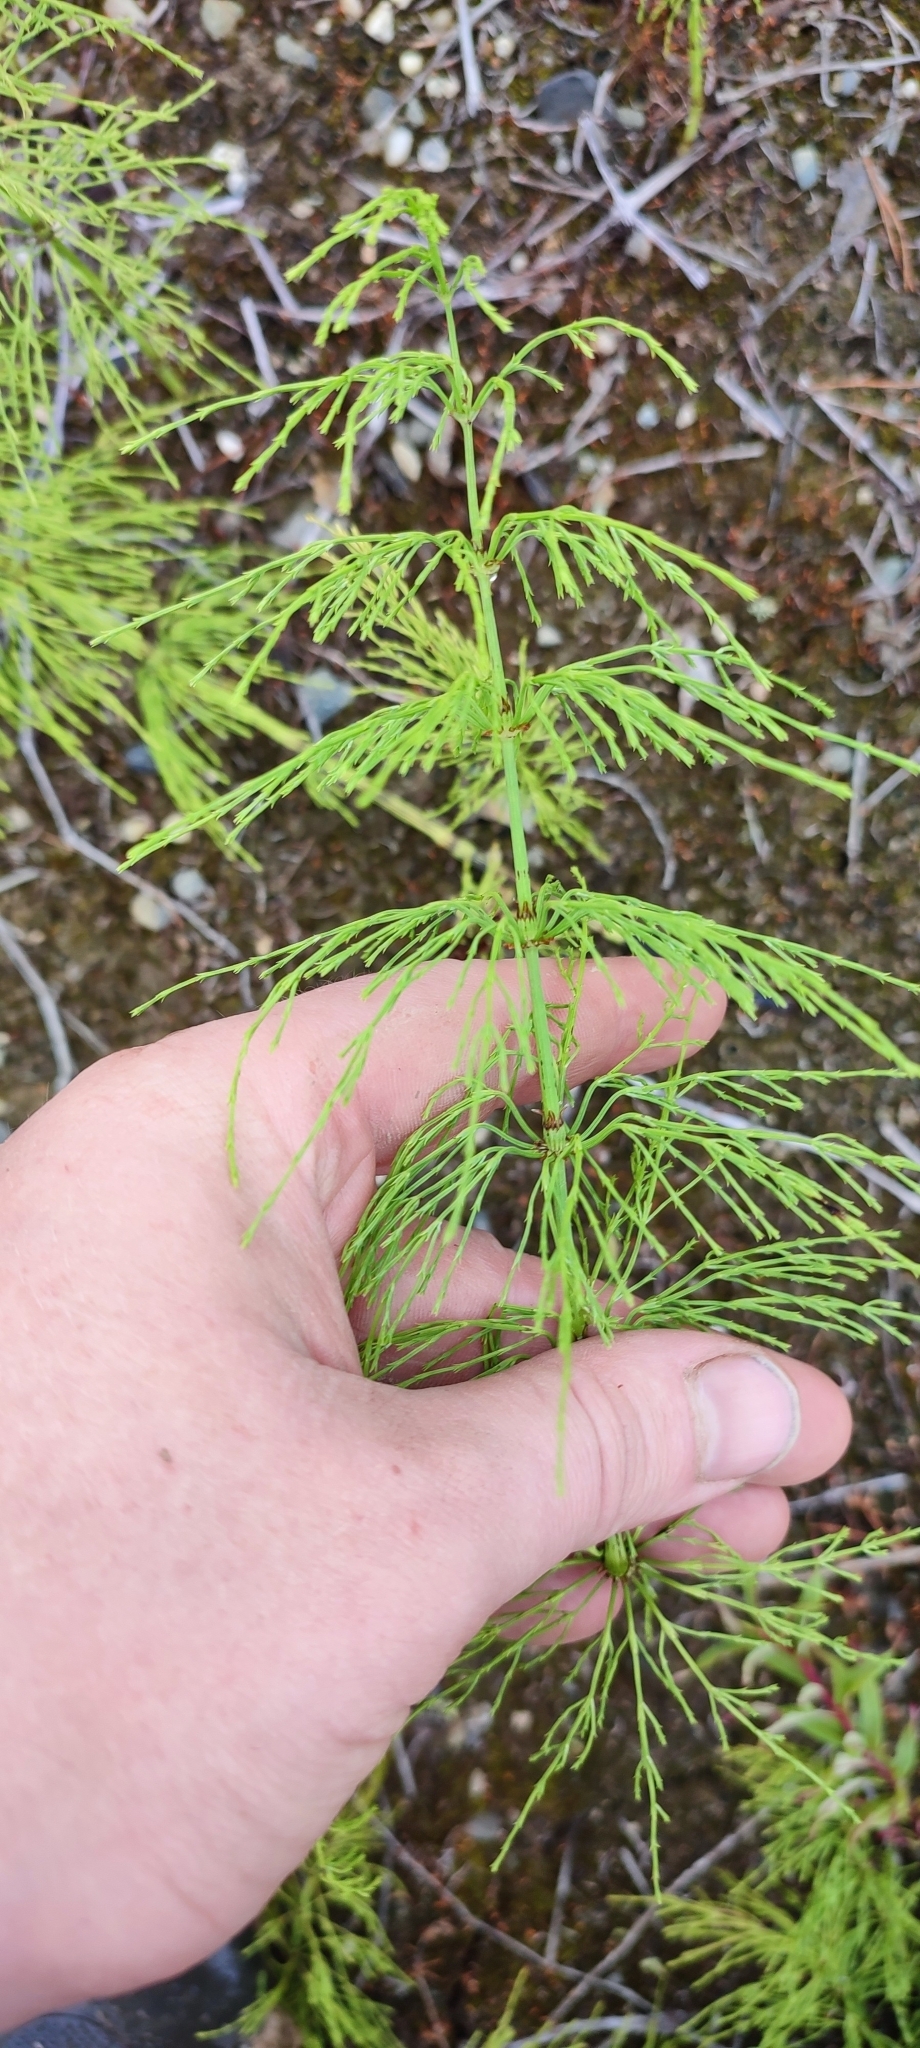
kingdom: Plantae
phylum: Tracheophyta
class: Polypodiopsida
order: Equisetales
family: Equisetaceae
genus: Equisetum
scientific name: Equisetum sylvaticum
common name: Wood horsetail
